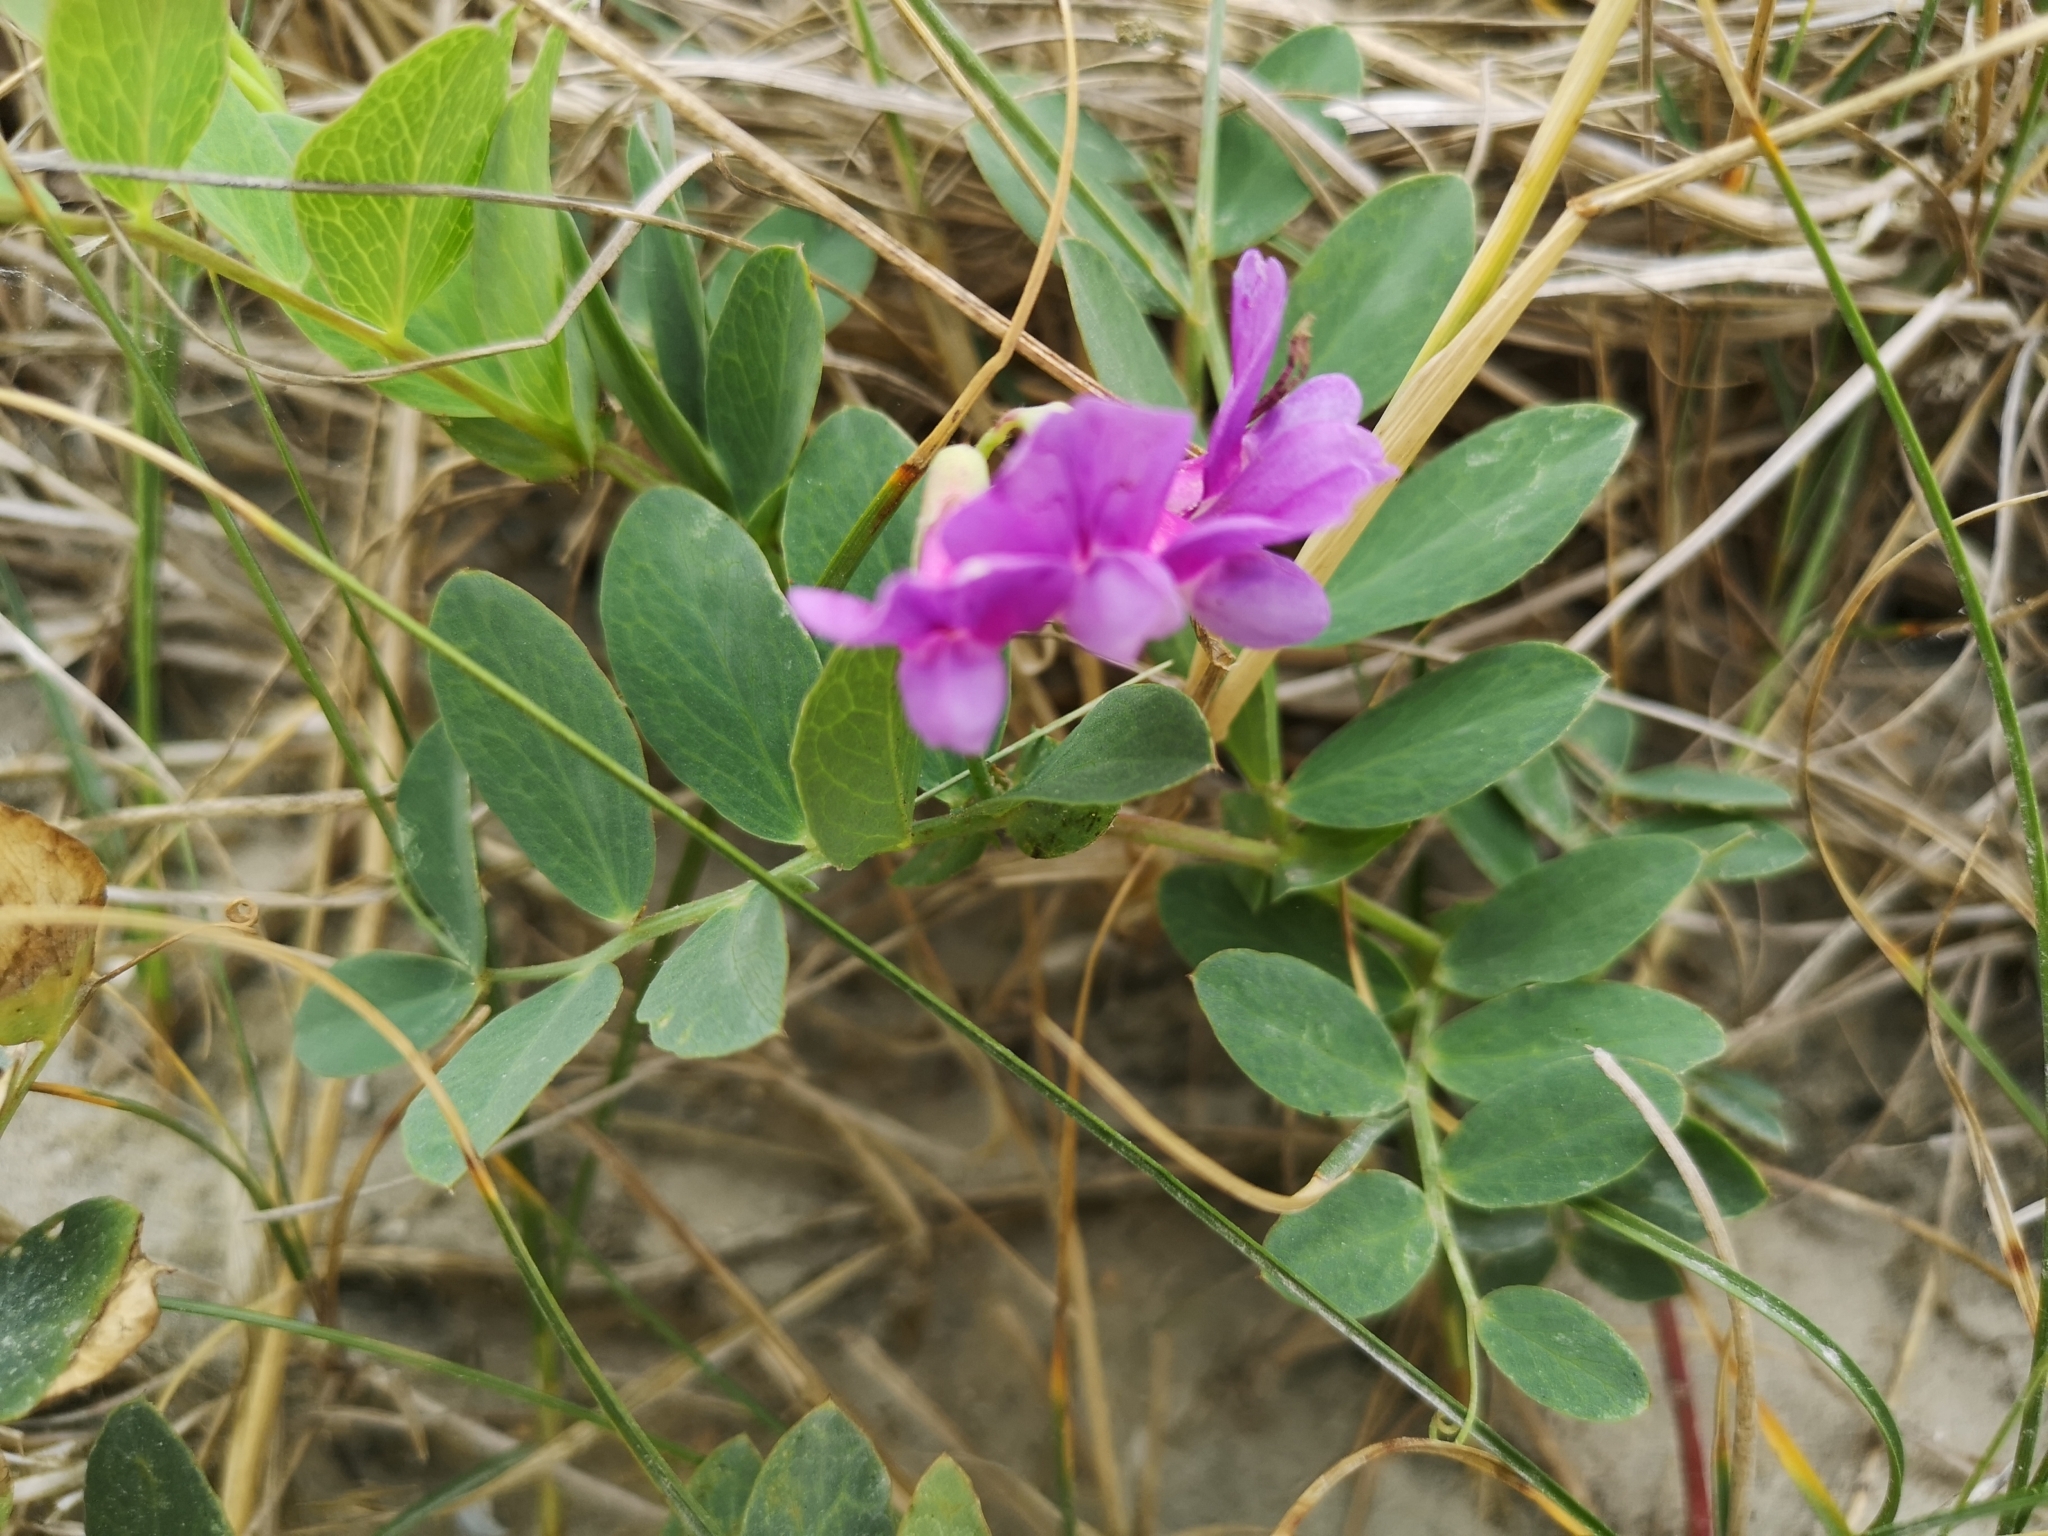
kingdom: Plantae
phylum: Tracheophyta
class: Magnoliopsida
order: Fabales
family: Fabaceae
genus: Lathyrus
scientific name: Lathyrus japonicus
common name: Sea pea
